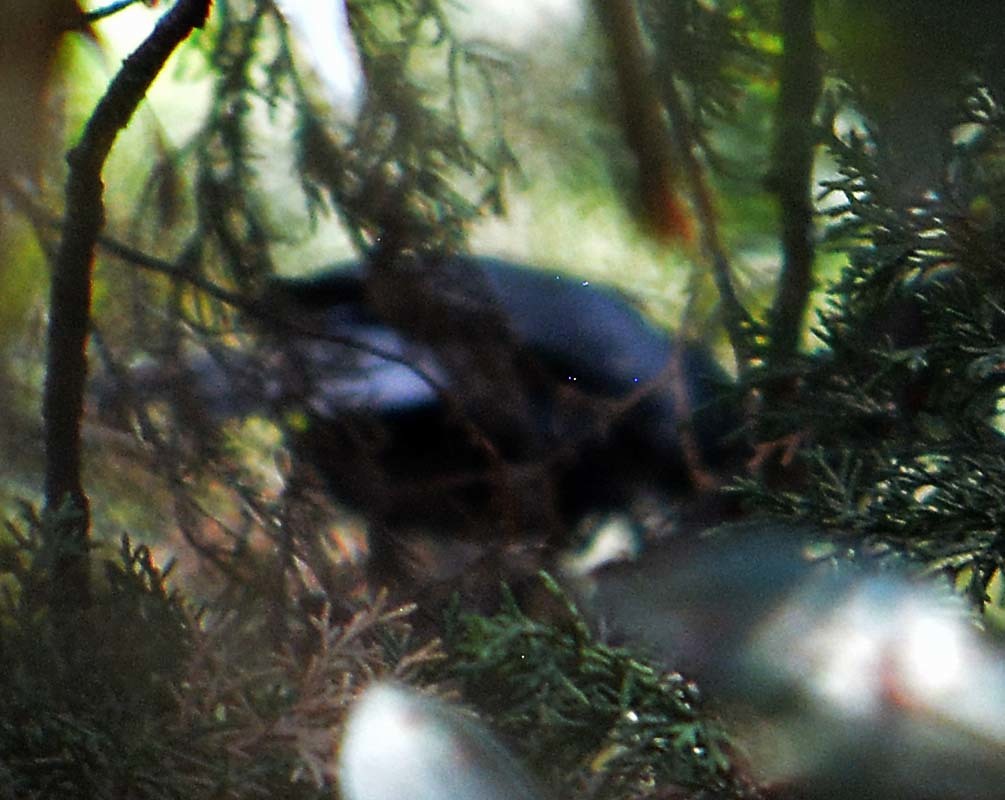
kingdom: Animalia
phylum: Chordata
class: Aves
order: Passeriformes
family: Mimidae
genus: Melanotis
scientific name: Melanotis caerulescens
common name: Blue mockingbird
